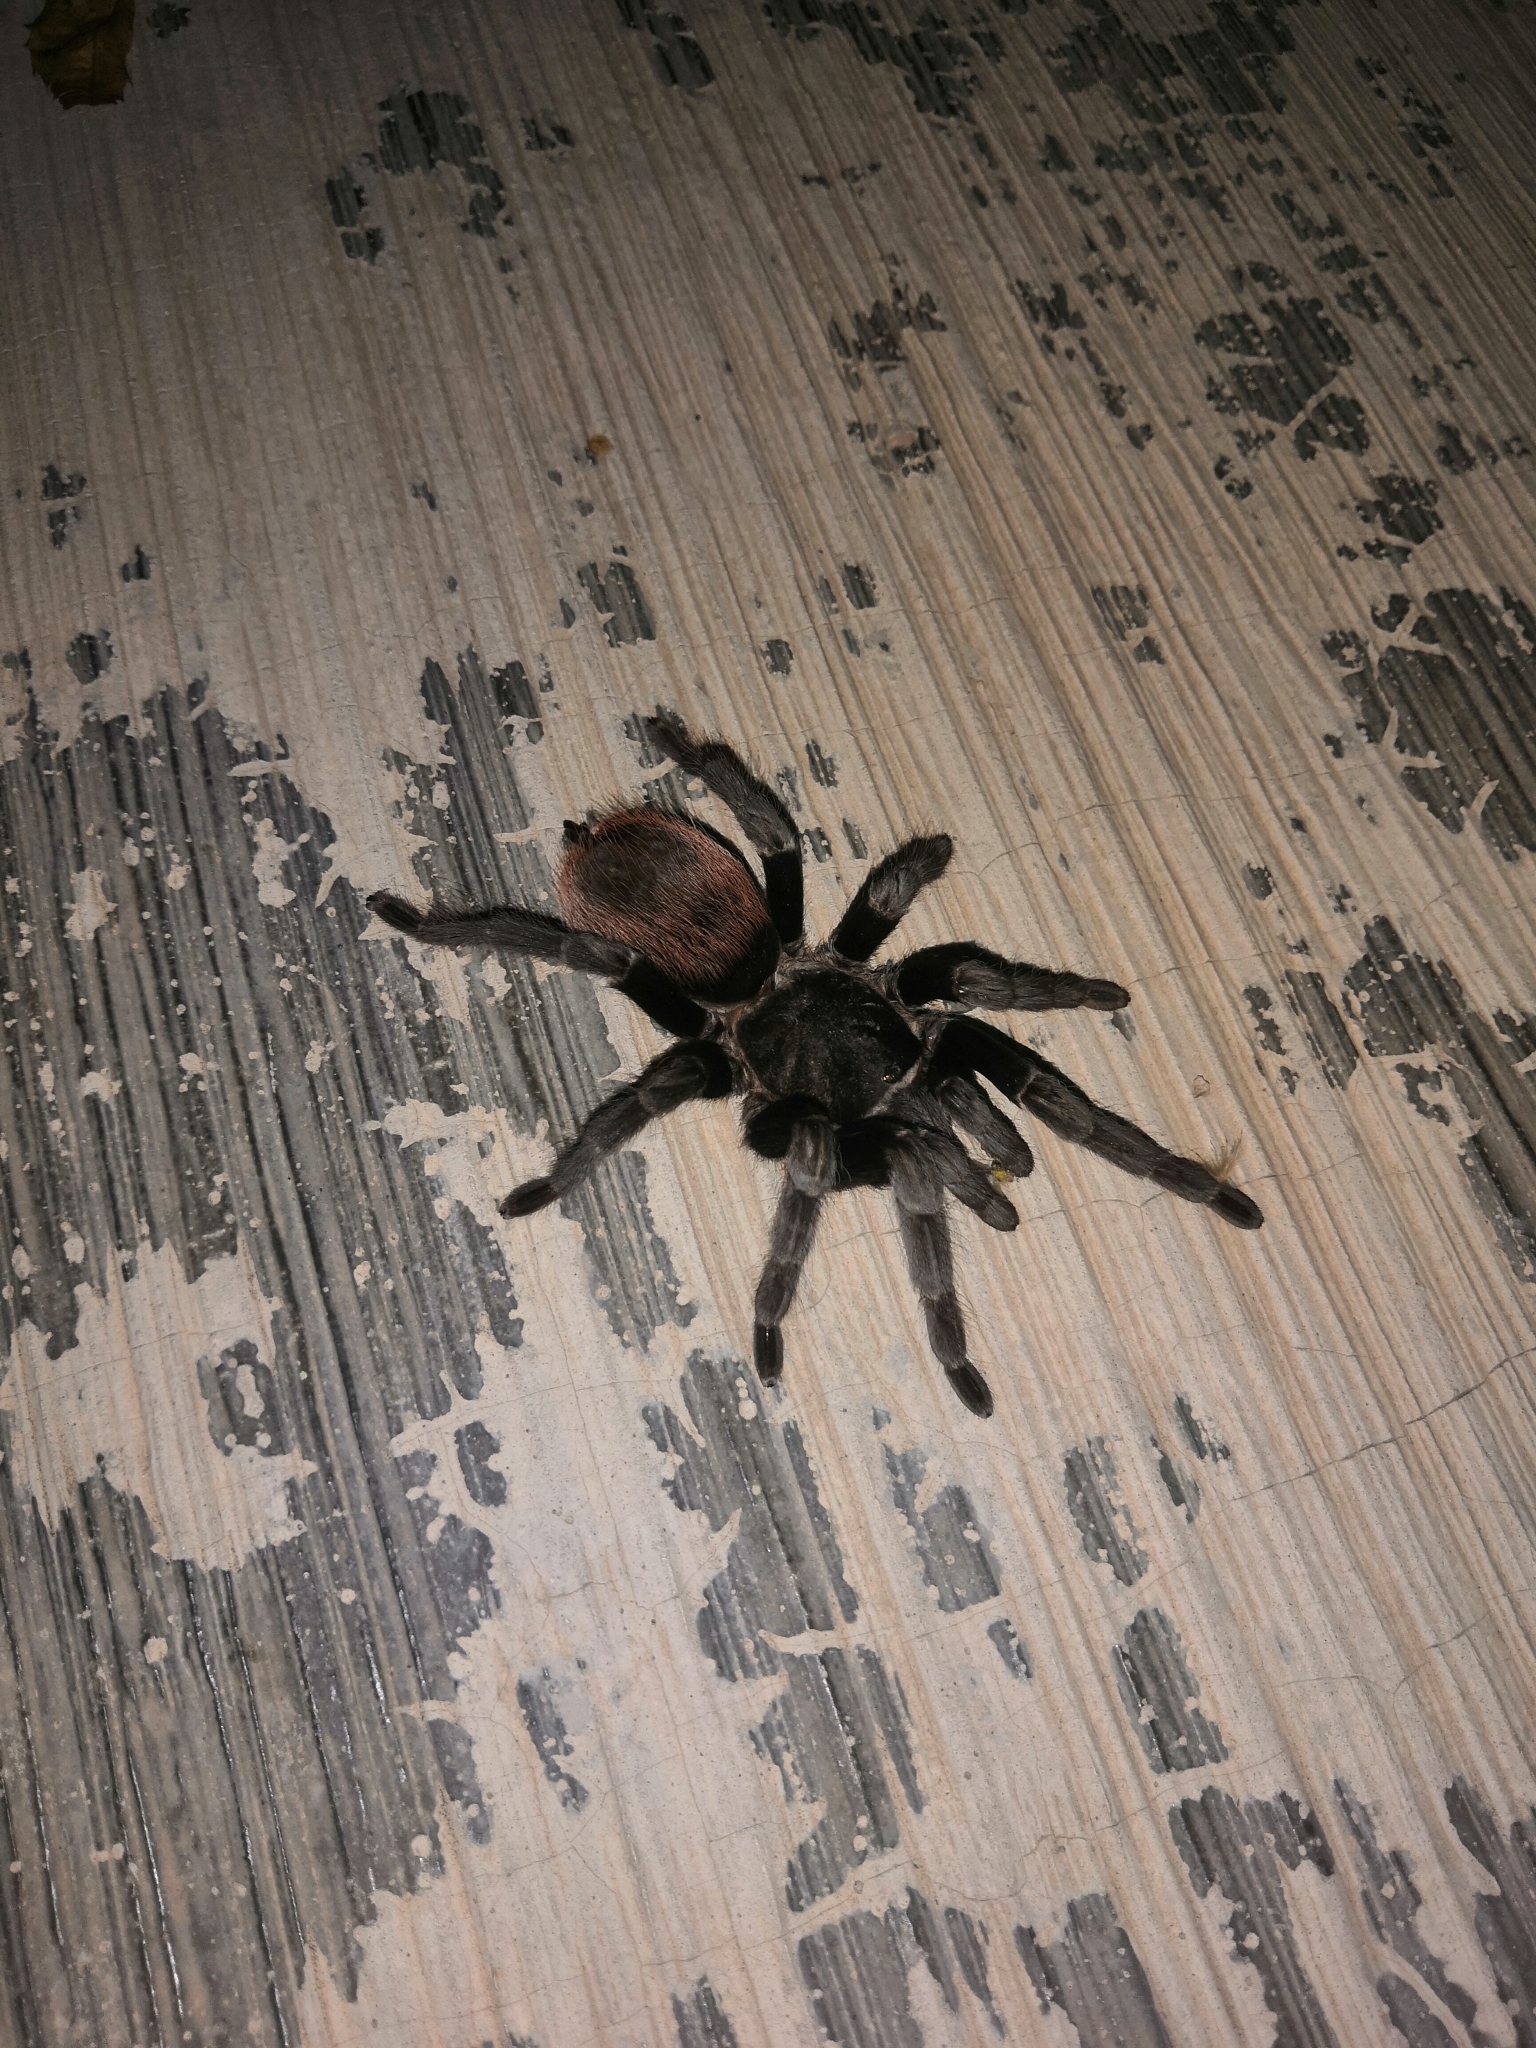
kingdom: Animalia
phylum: Arthropoda
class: Arachnida
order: Araneae
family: Theraphosidae
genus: Tliltocatl
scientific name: Tliltocatl epicureanus
